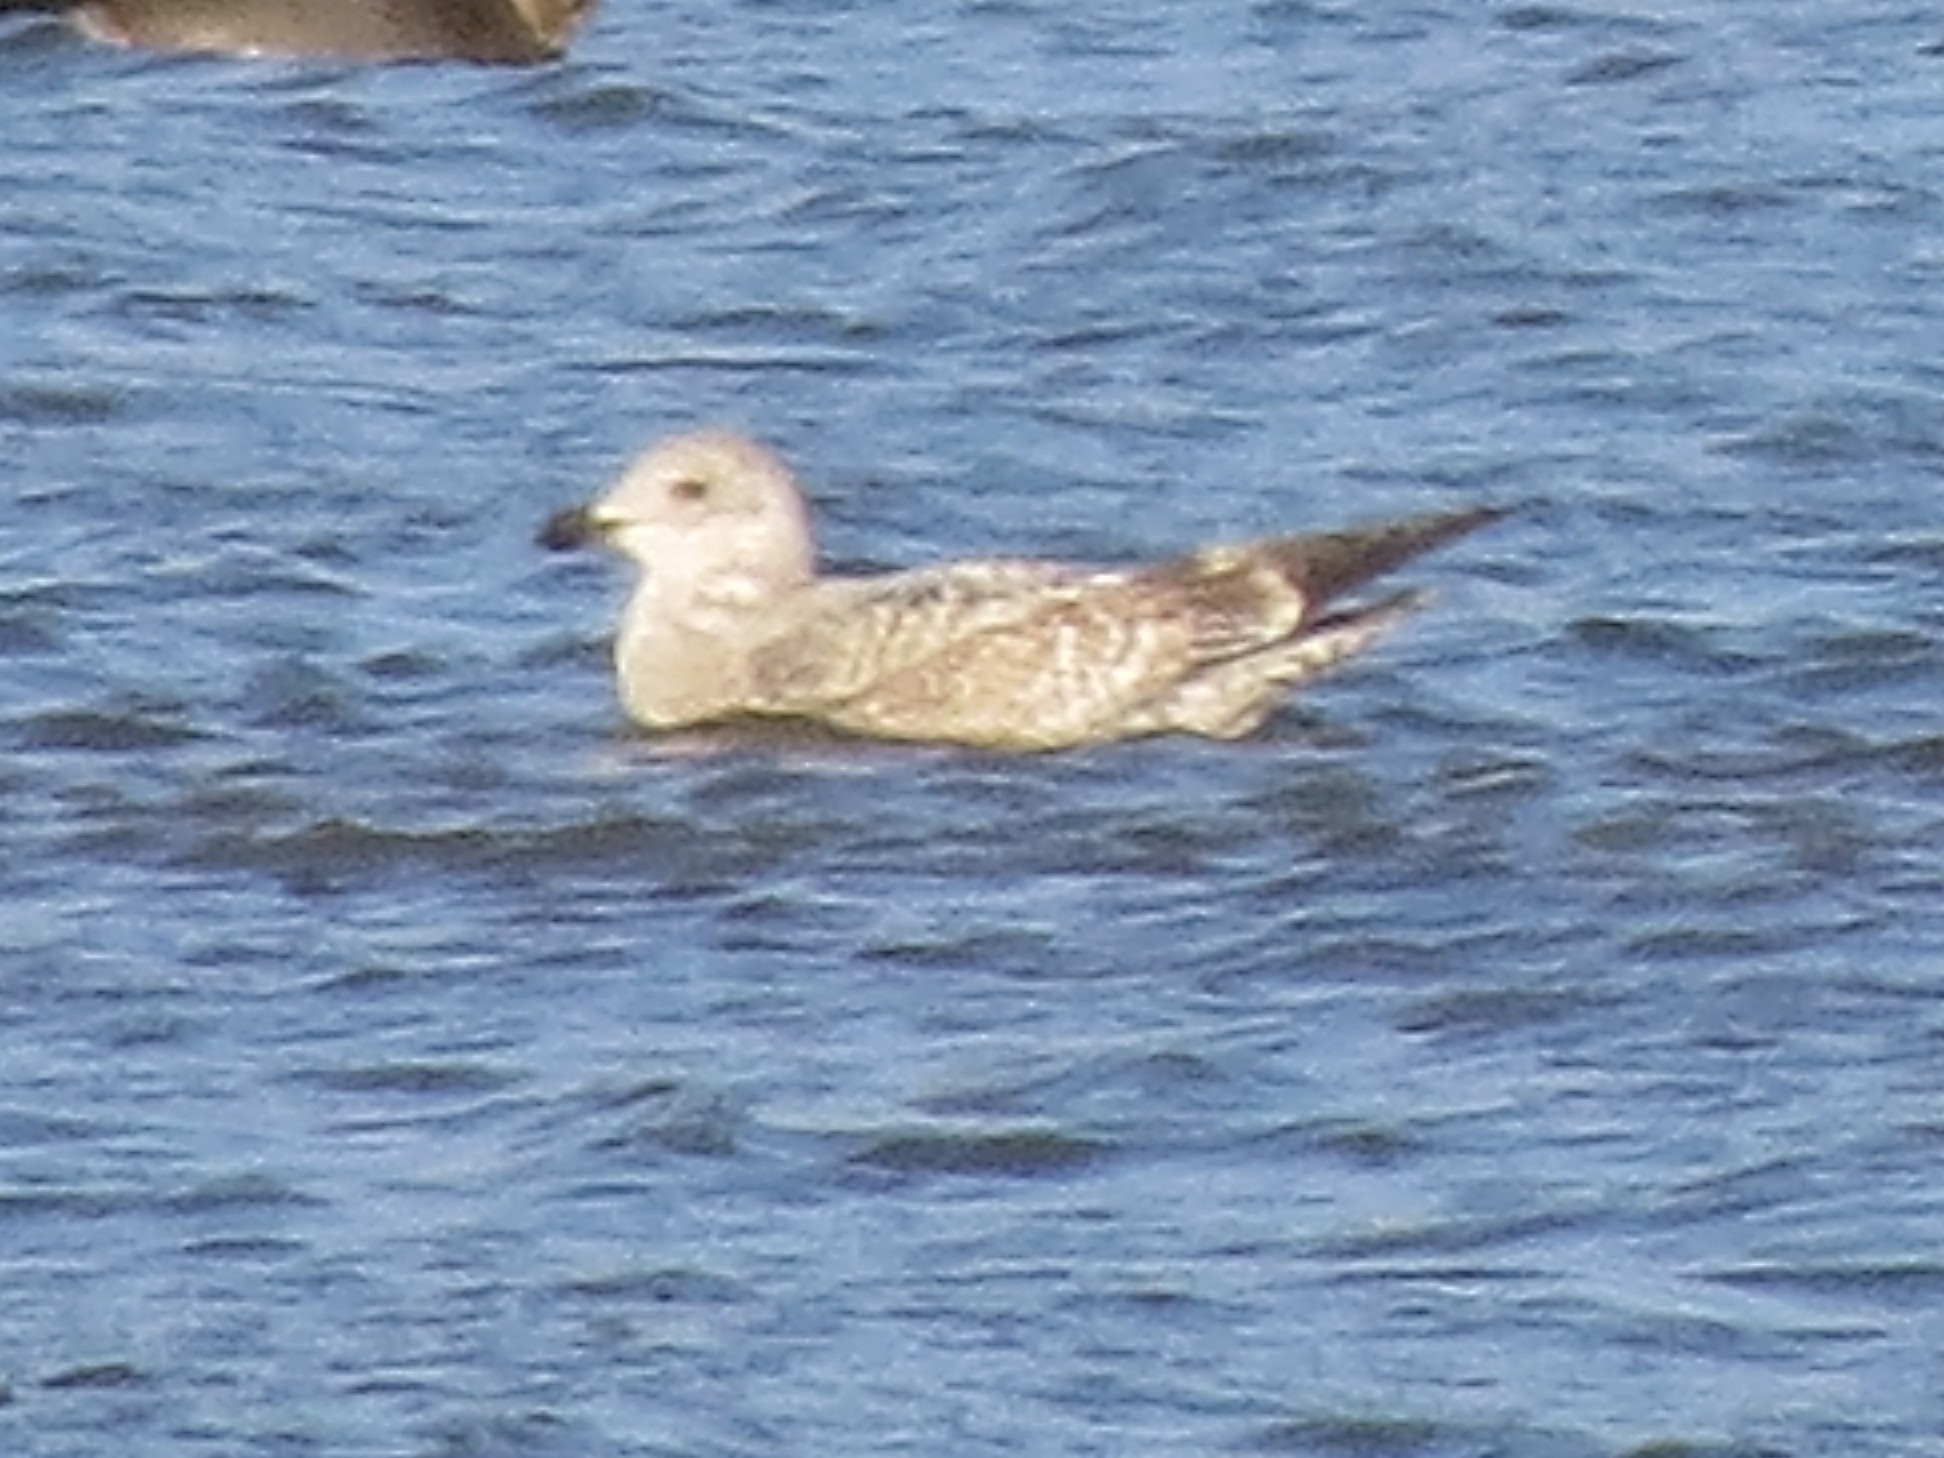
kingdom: Animalia
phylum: Chordata
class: Aves
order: Charadriiformes
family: Laridae
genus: Larus
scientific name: Larus argentatus
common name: Herring gull
